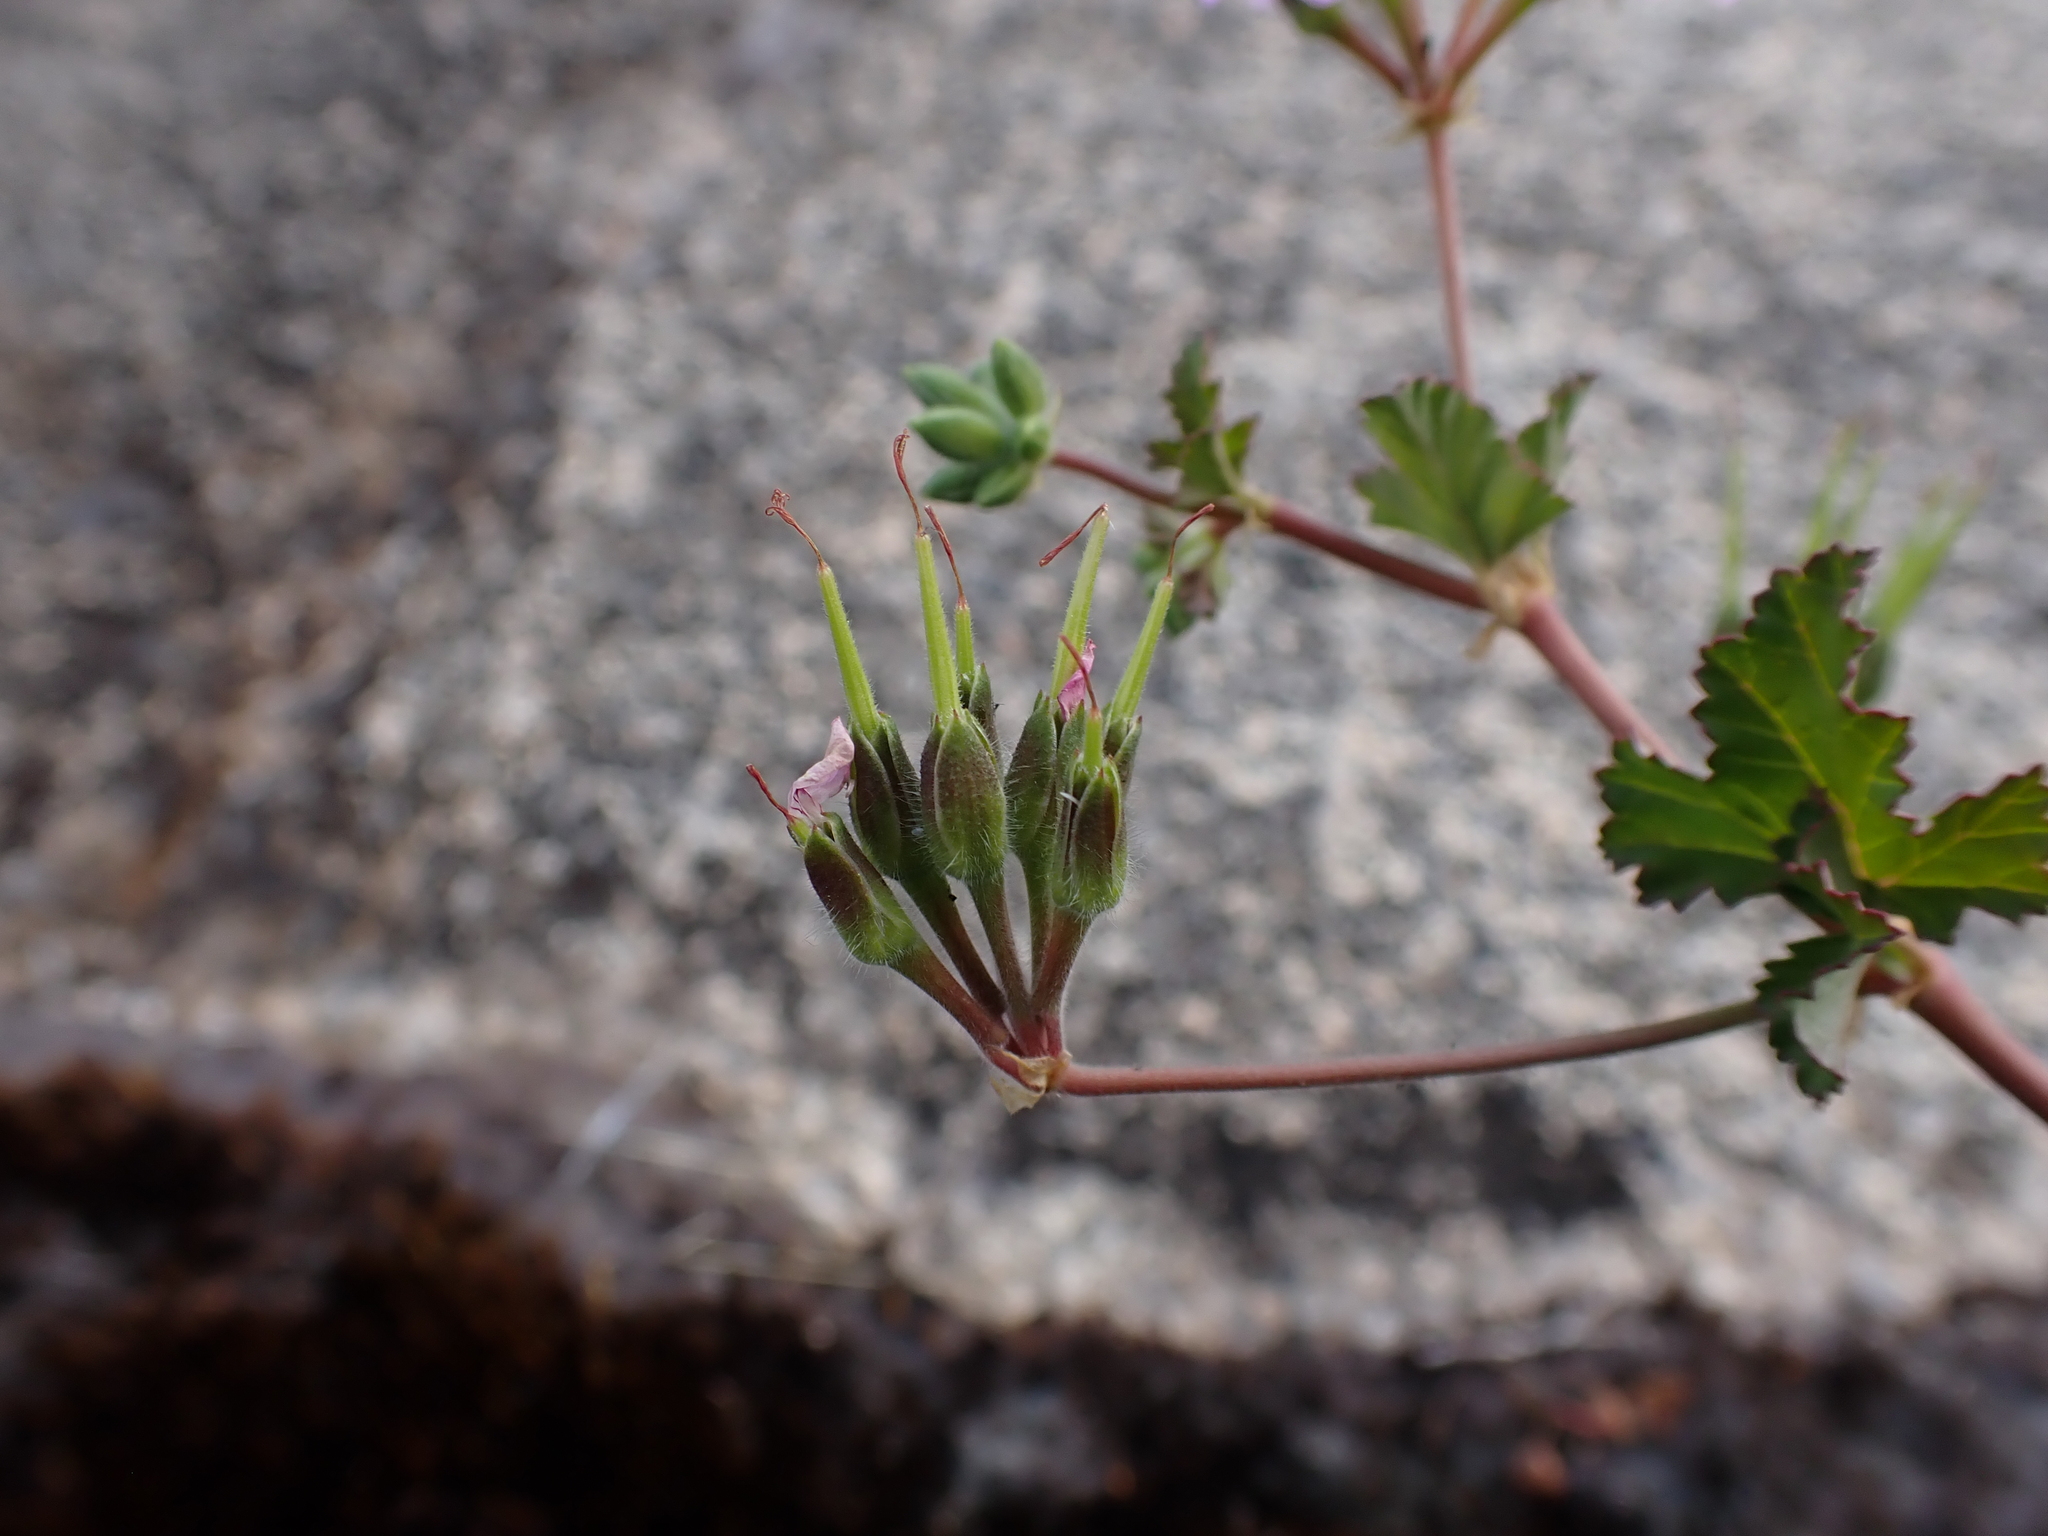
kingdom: Plantae
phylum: Tracheophyta
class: Magnoliopsida
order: Geraniales
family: Geraniaceae
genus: Pelargonium
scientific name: Pelargonium australe
